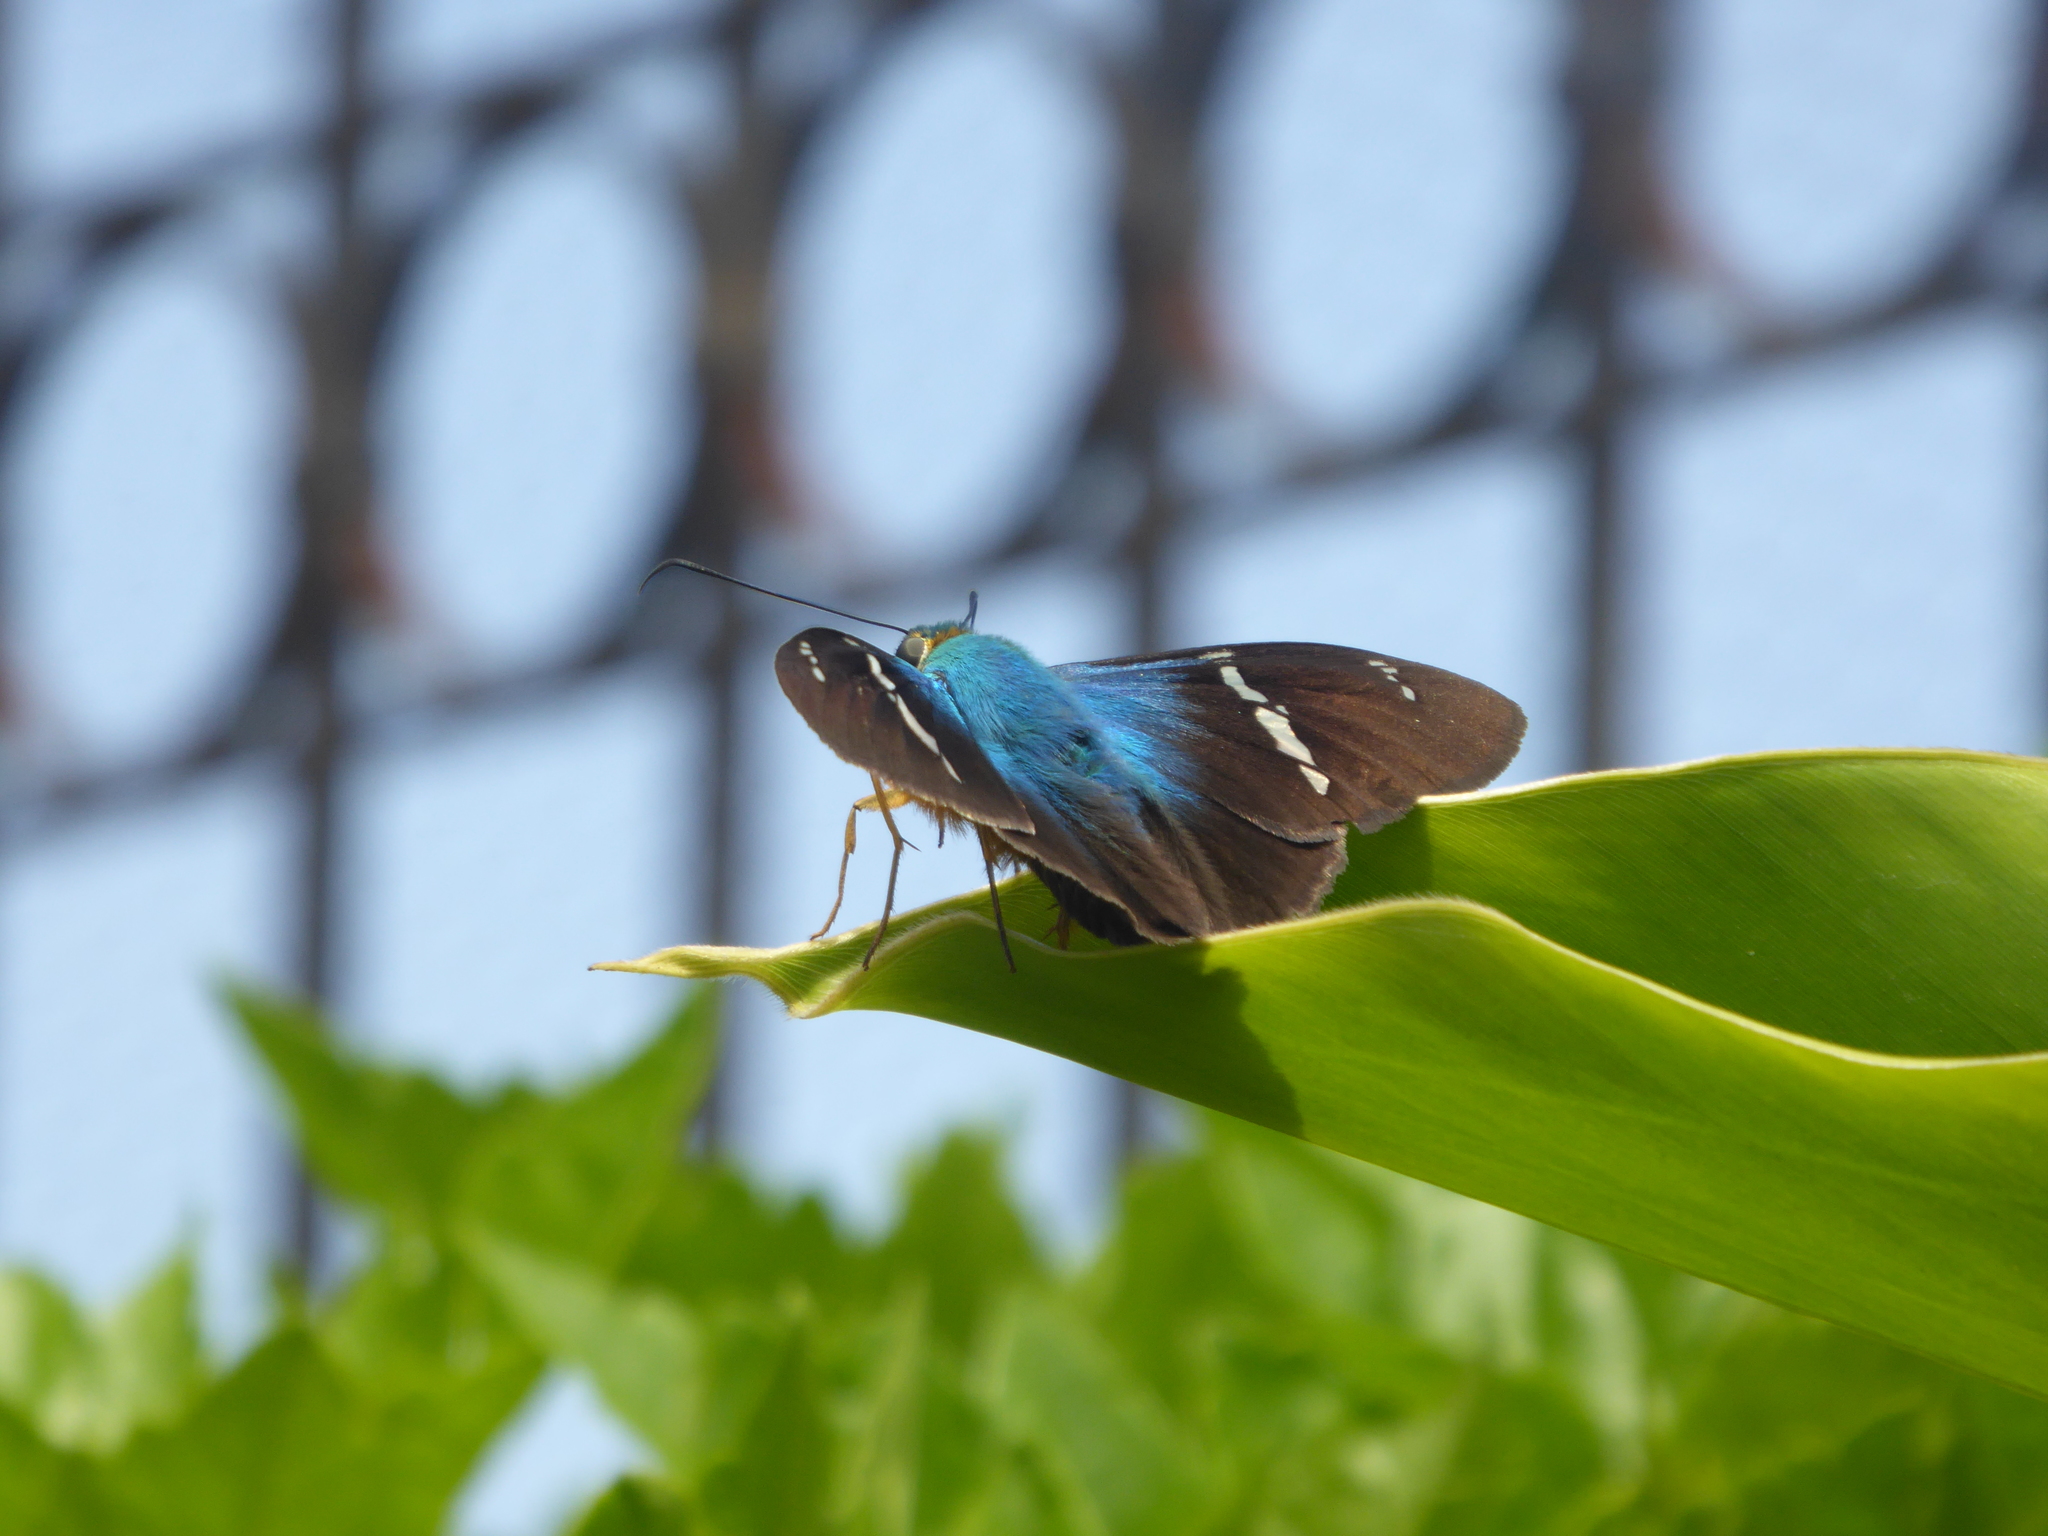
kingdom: Animalia
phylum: Arthropoda
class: Insecta
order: Lepidoptera
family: Hesperiidae
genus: Astraptes
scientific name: Astraptes fulgerator
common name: Two-barred flasher
